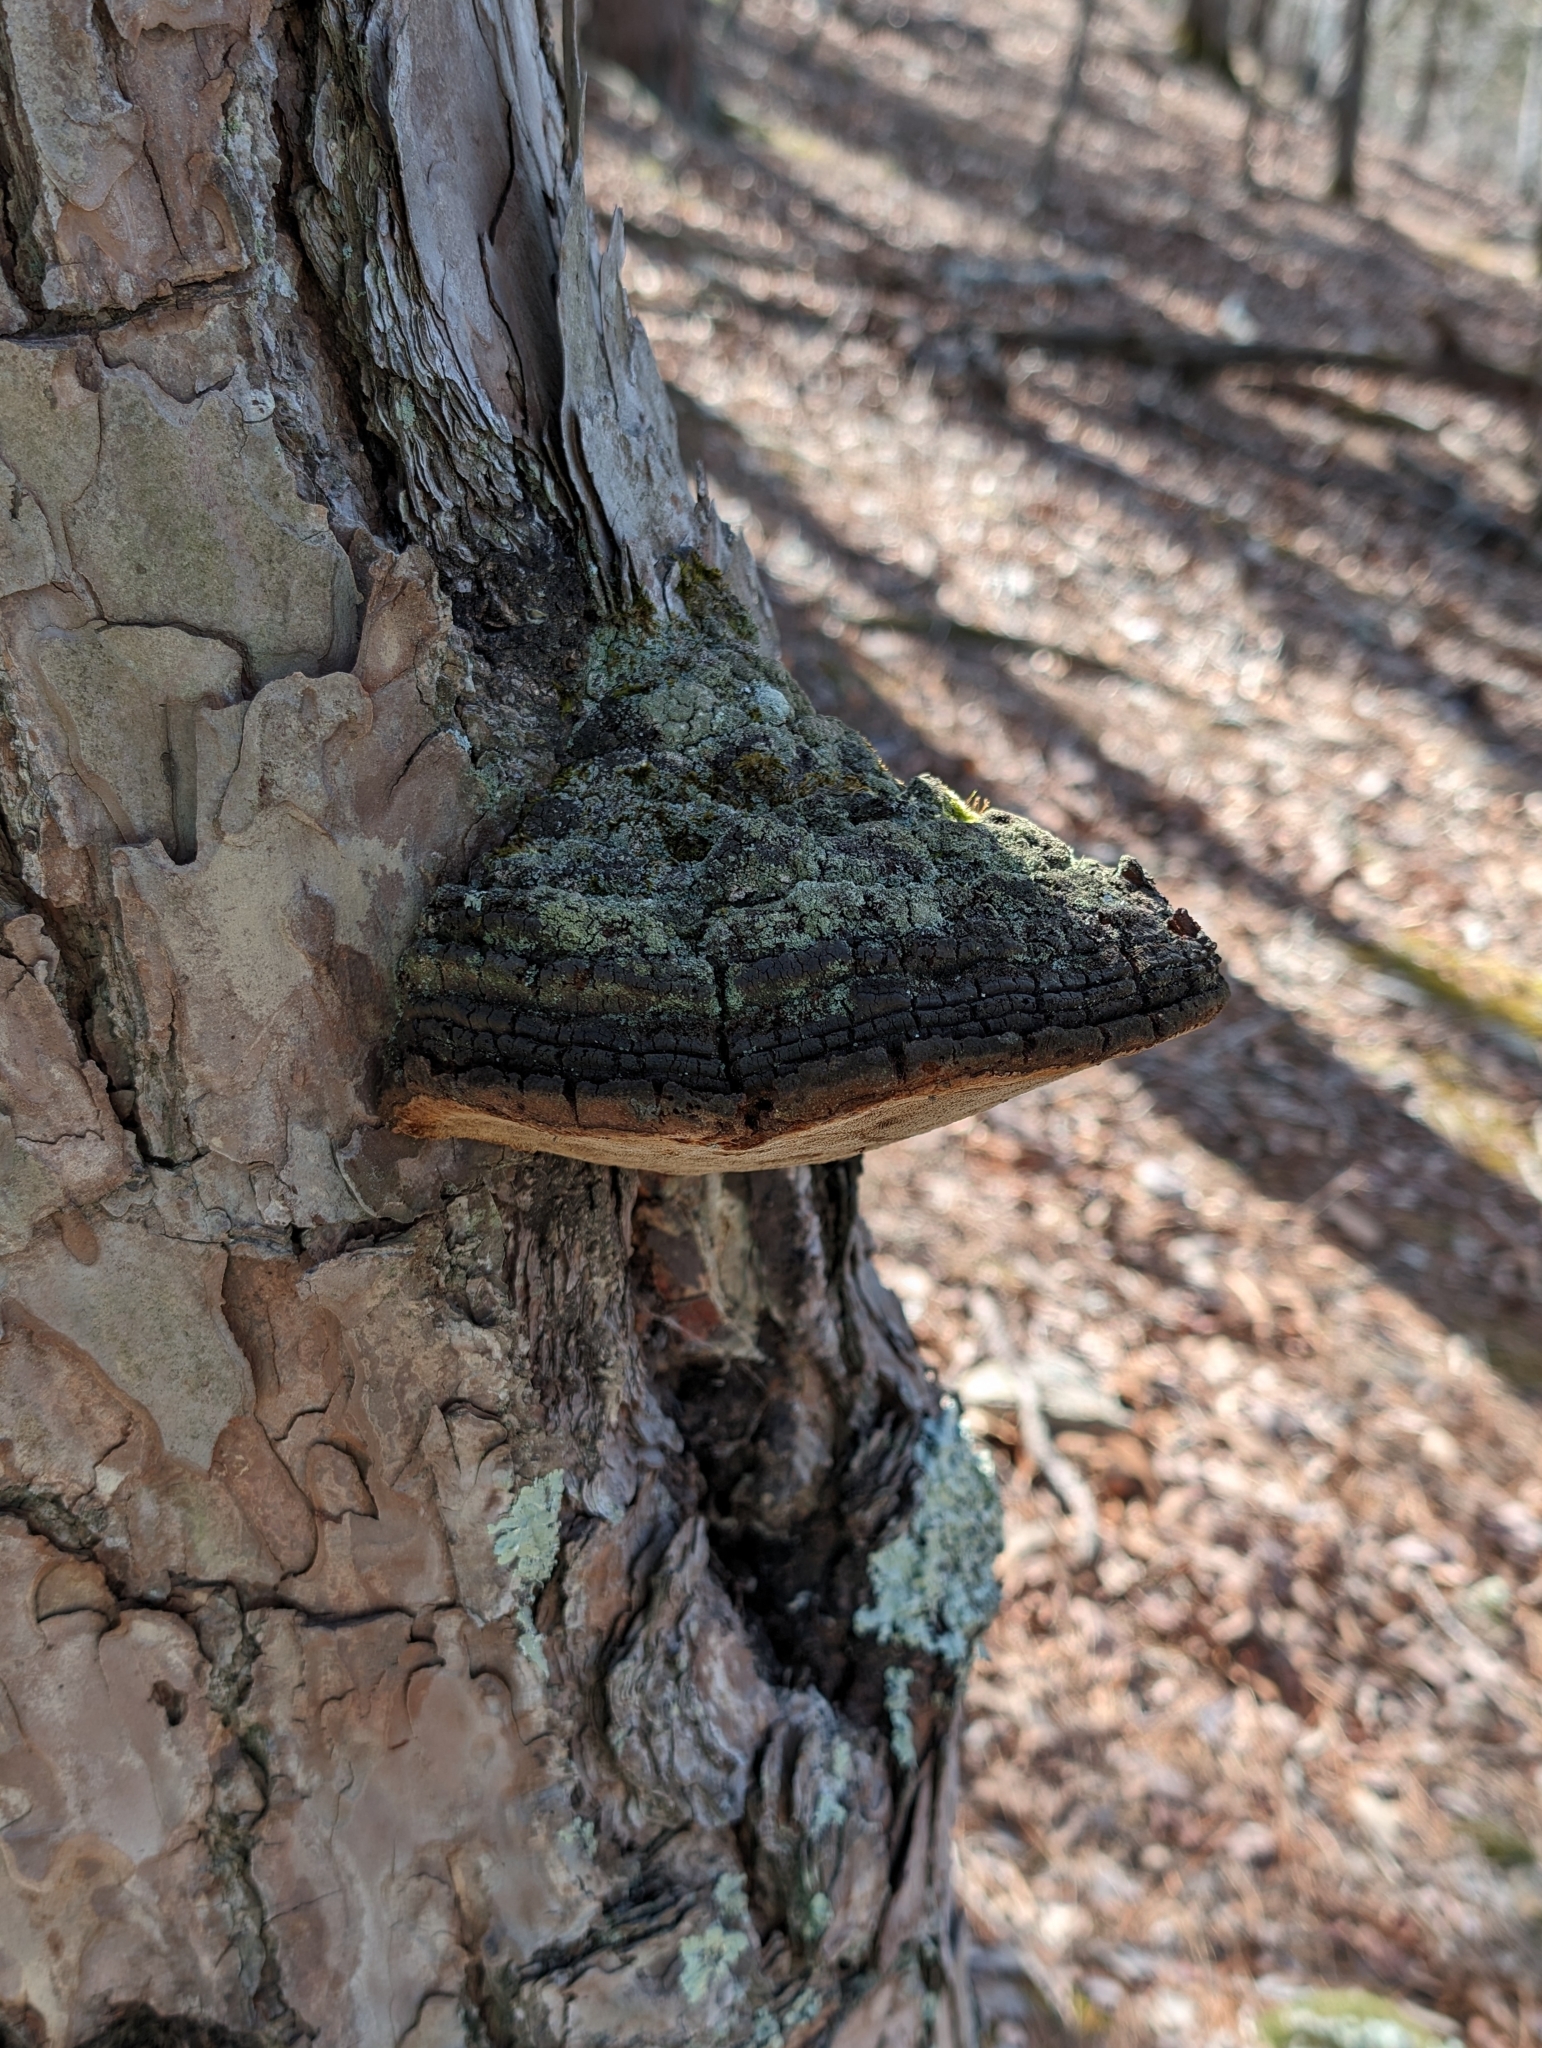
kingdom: Fungi
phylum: Basidiomycota
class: Agaricomycetes
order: Hymenochaetales
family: Hymenochaetaceae
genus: Porodaedalea
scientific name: Porodaedalea pini
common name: Pine bracket
